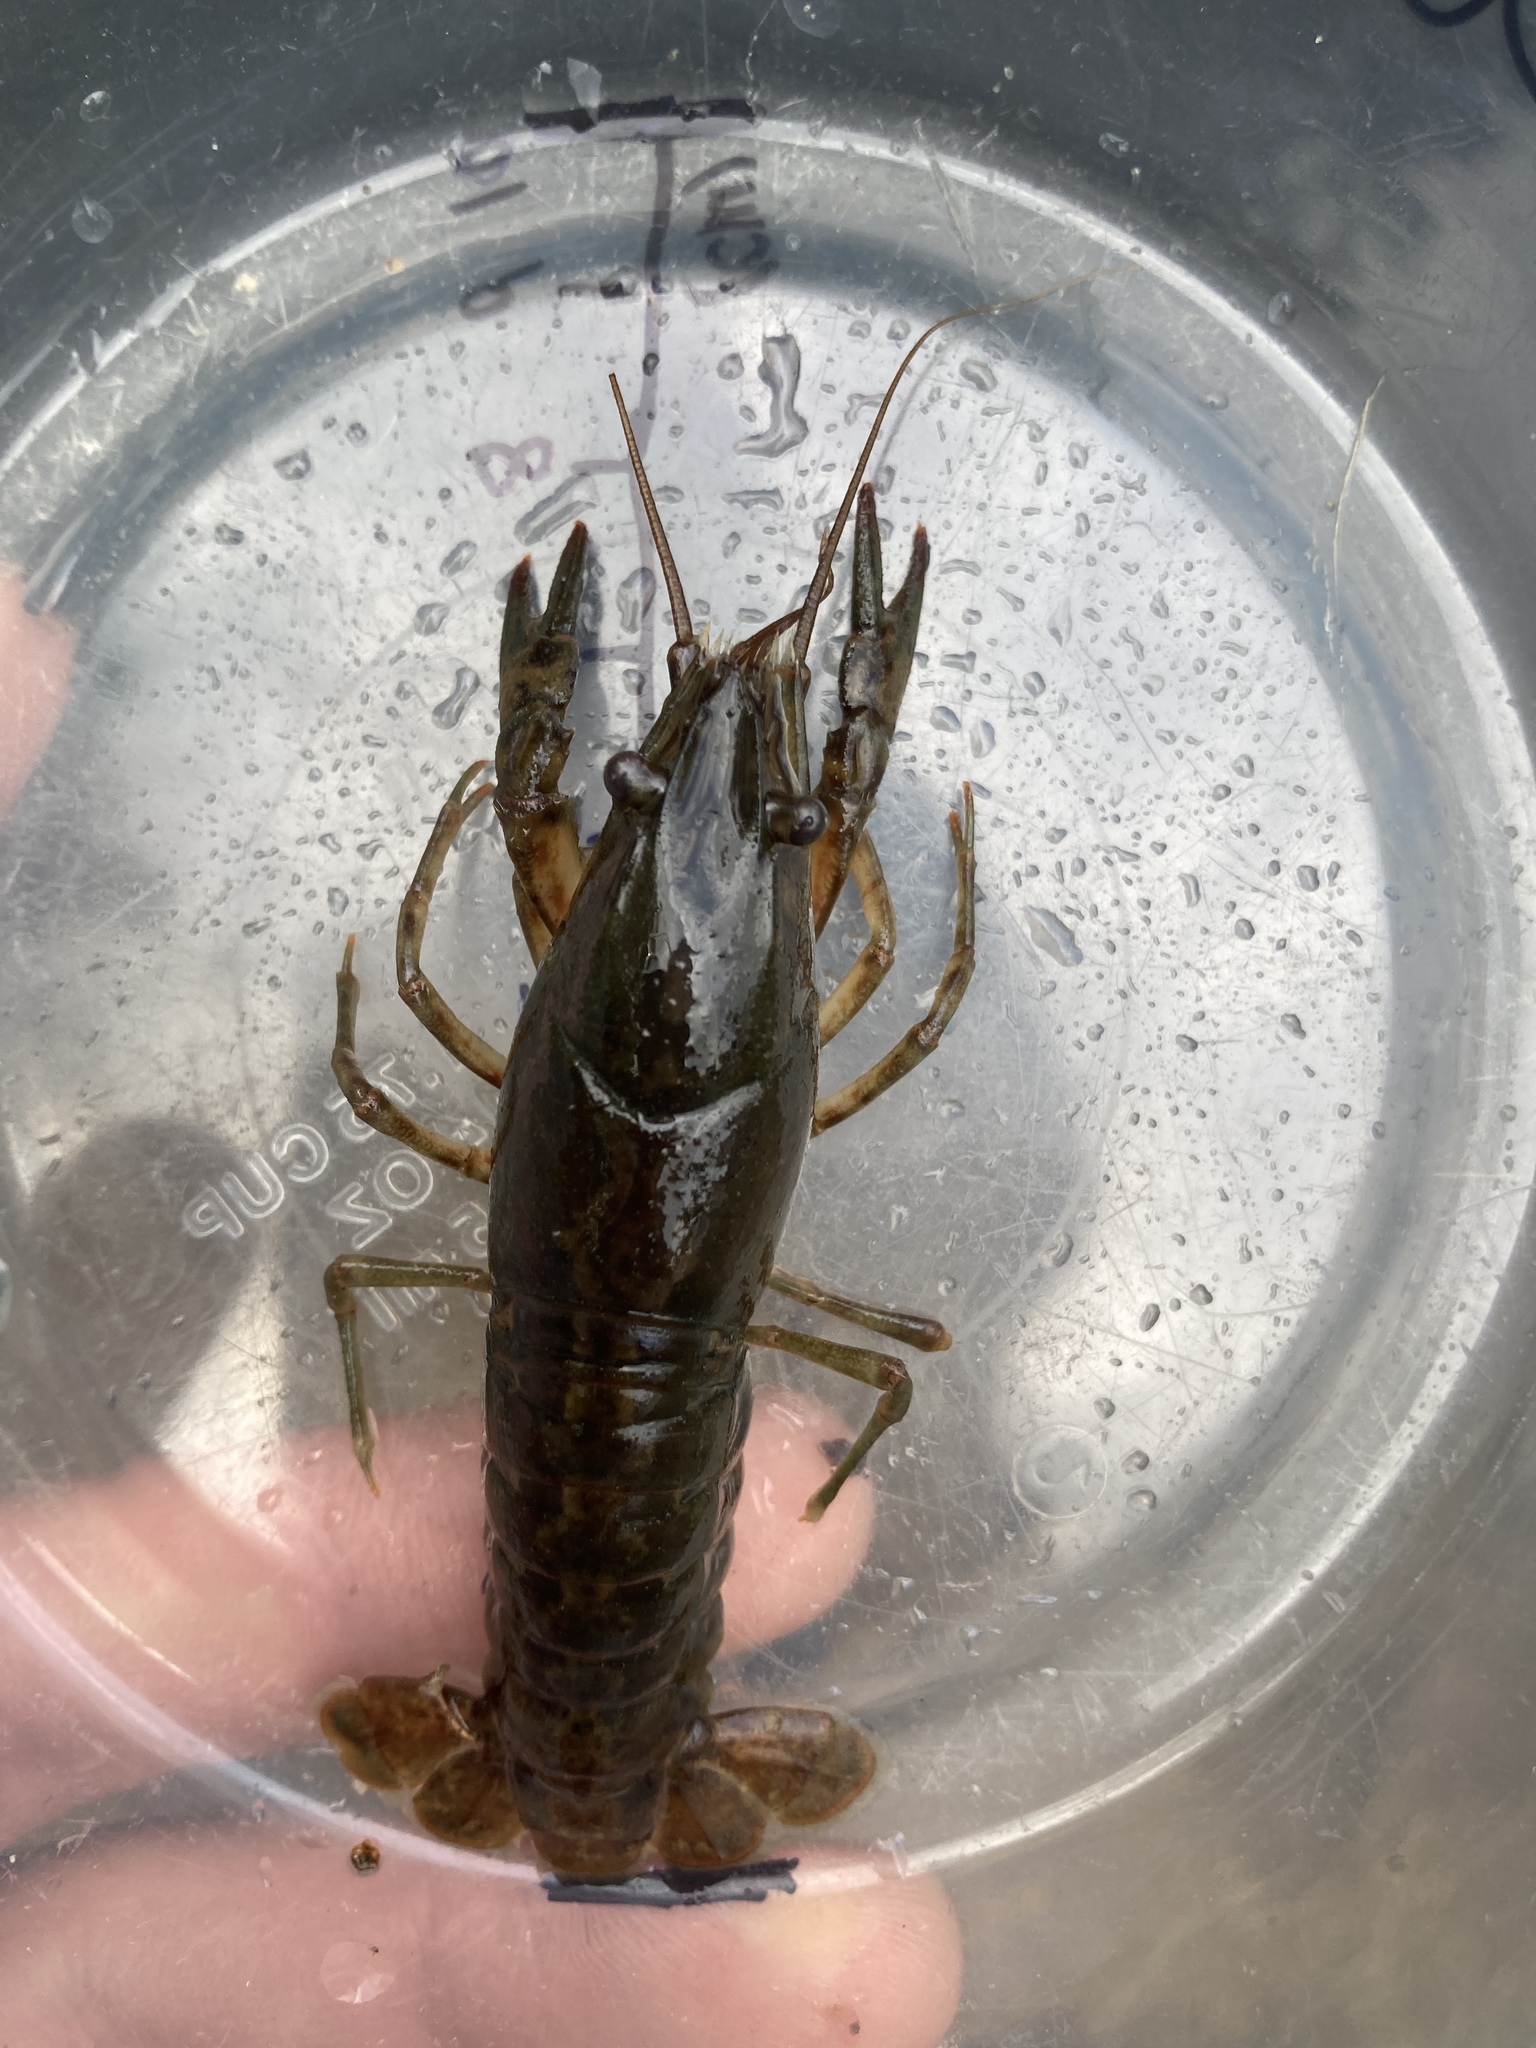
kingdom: Animalia
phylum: Arthropoda
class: Malacostraca
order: Decapoda
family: Cambaridae
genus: Faxonius
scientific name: Faxonius immunis
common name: Calico crayfish
